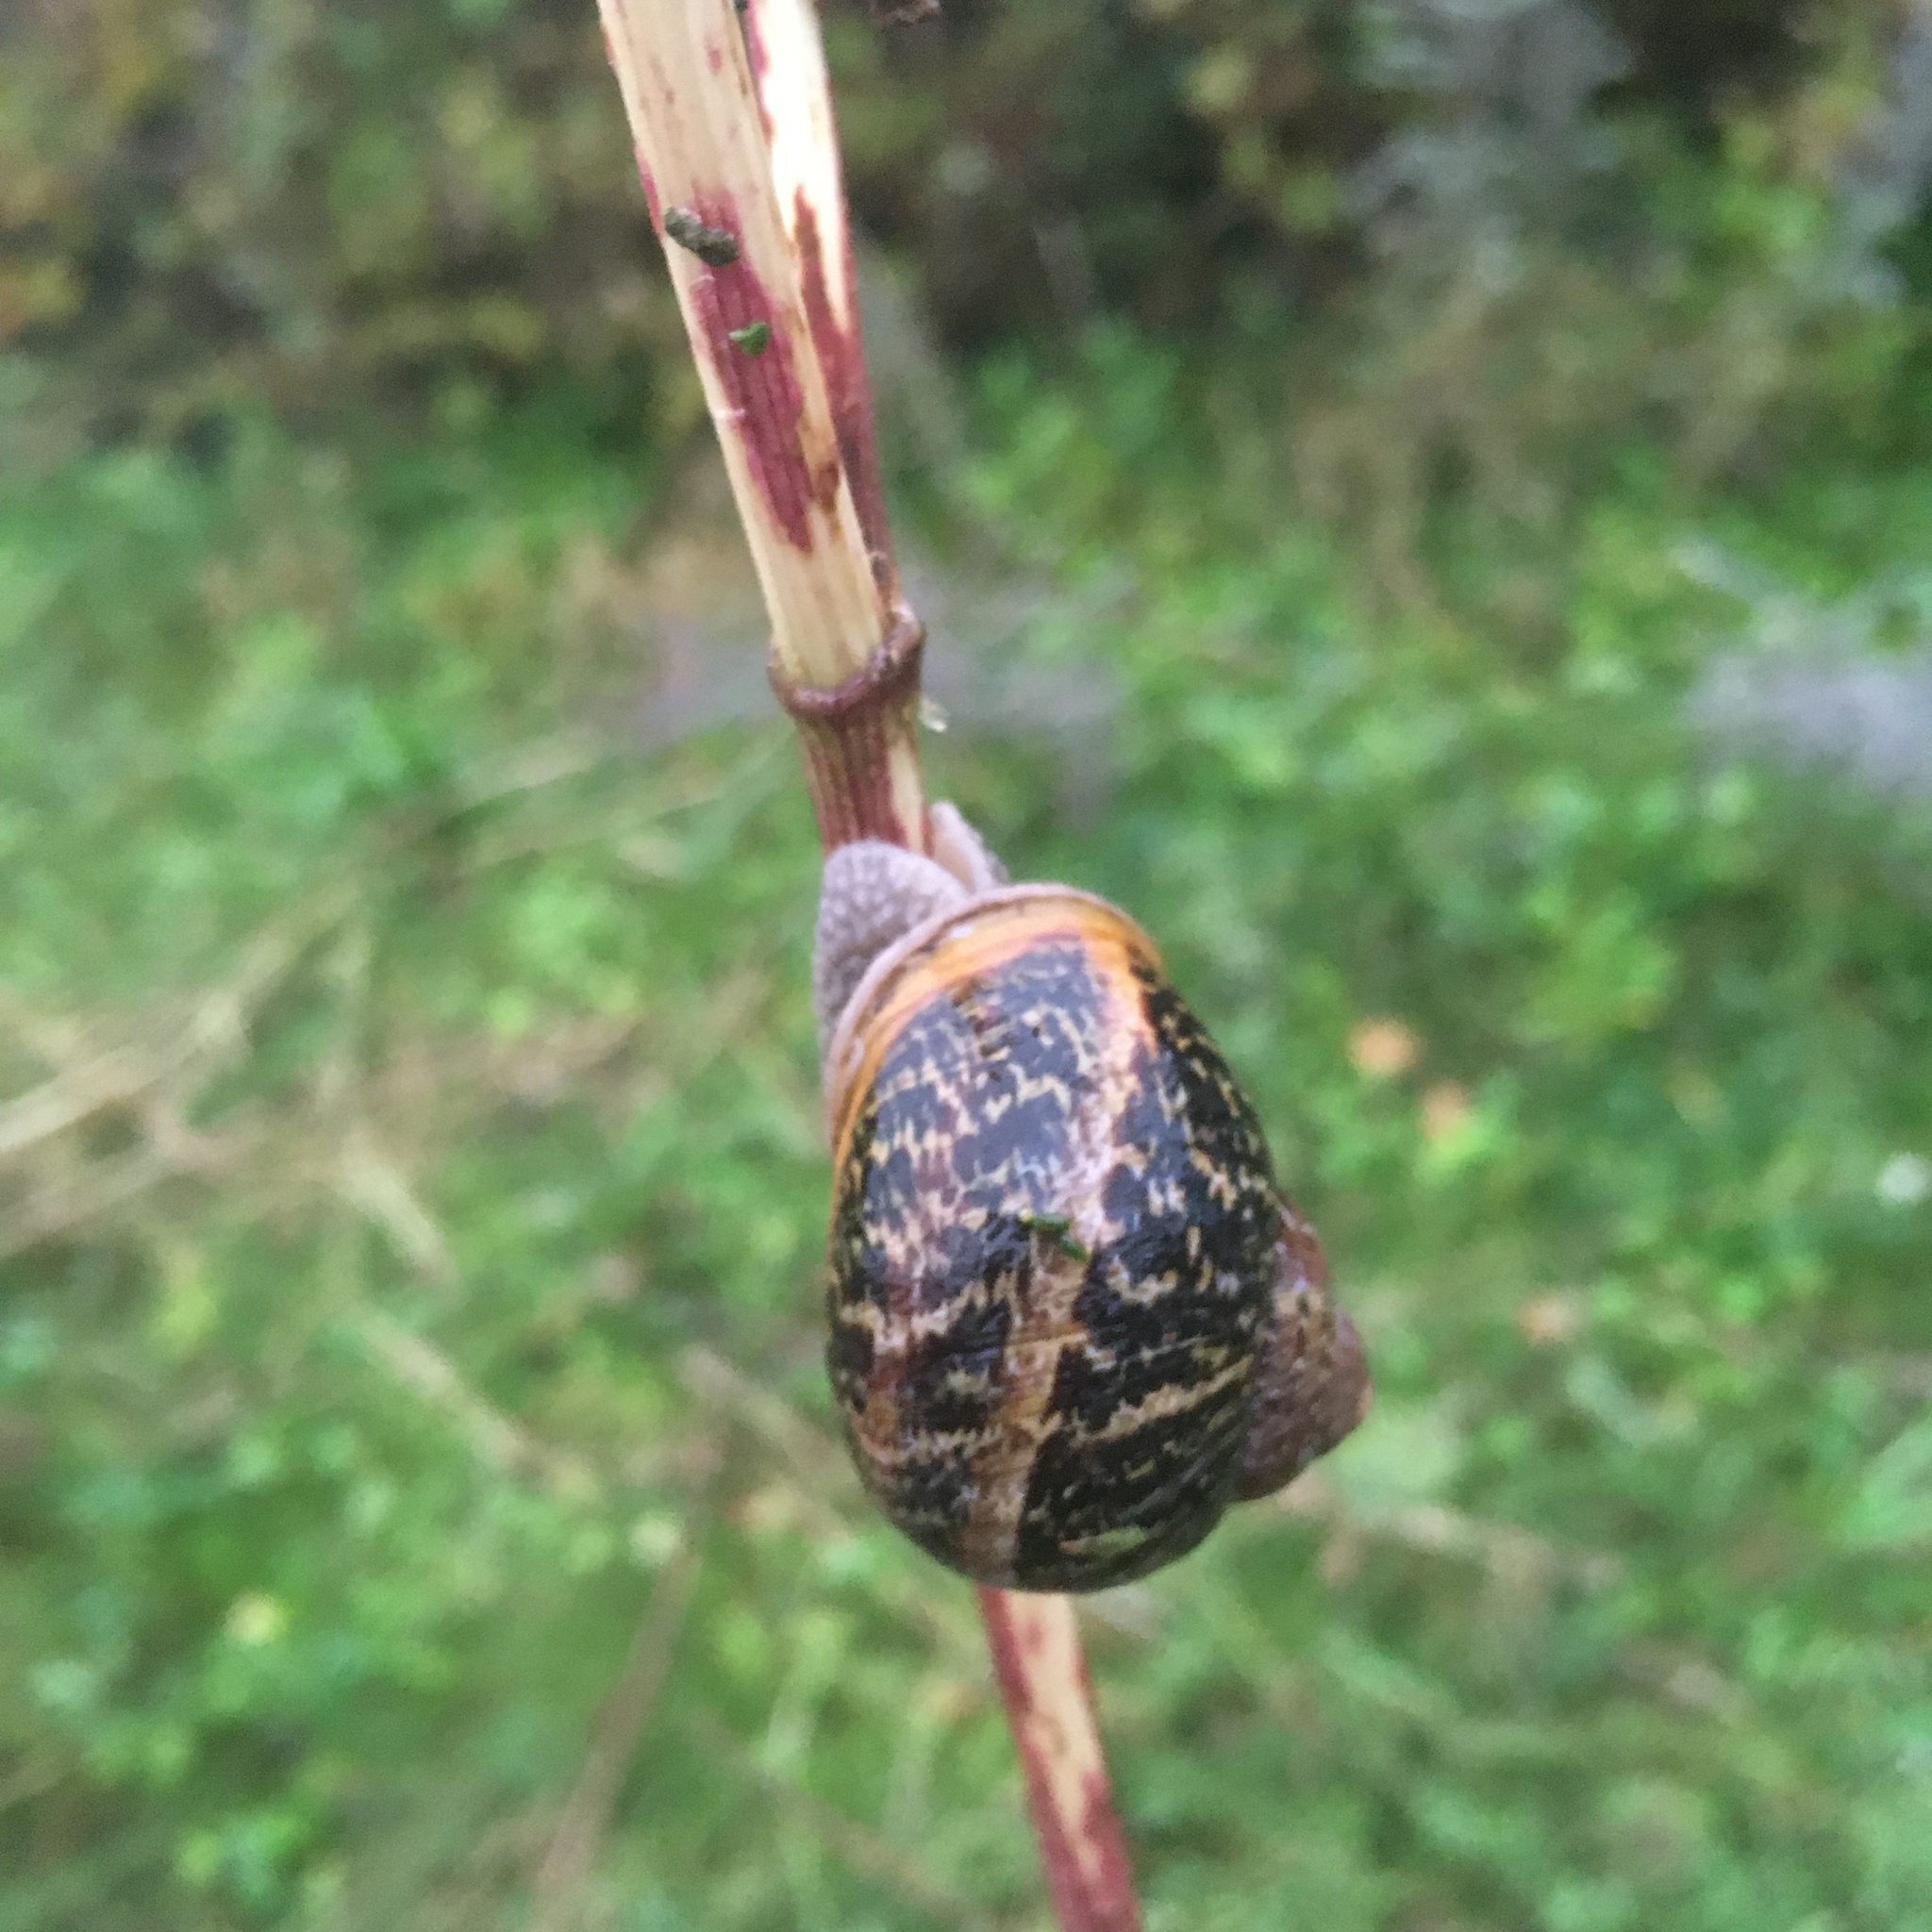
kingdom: Animalia
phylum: Mollusca
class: Gastropoda
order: Stylommatophora
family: Helicidae
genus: Cornu
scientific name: Cornu aspersum
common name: Brown garden snail
